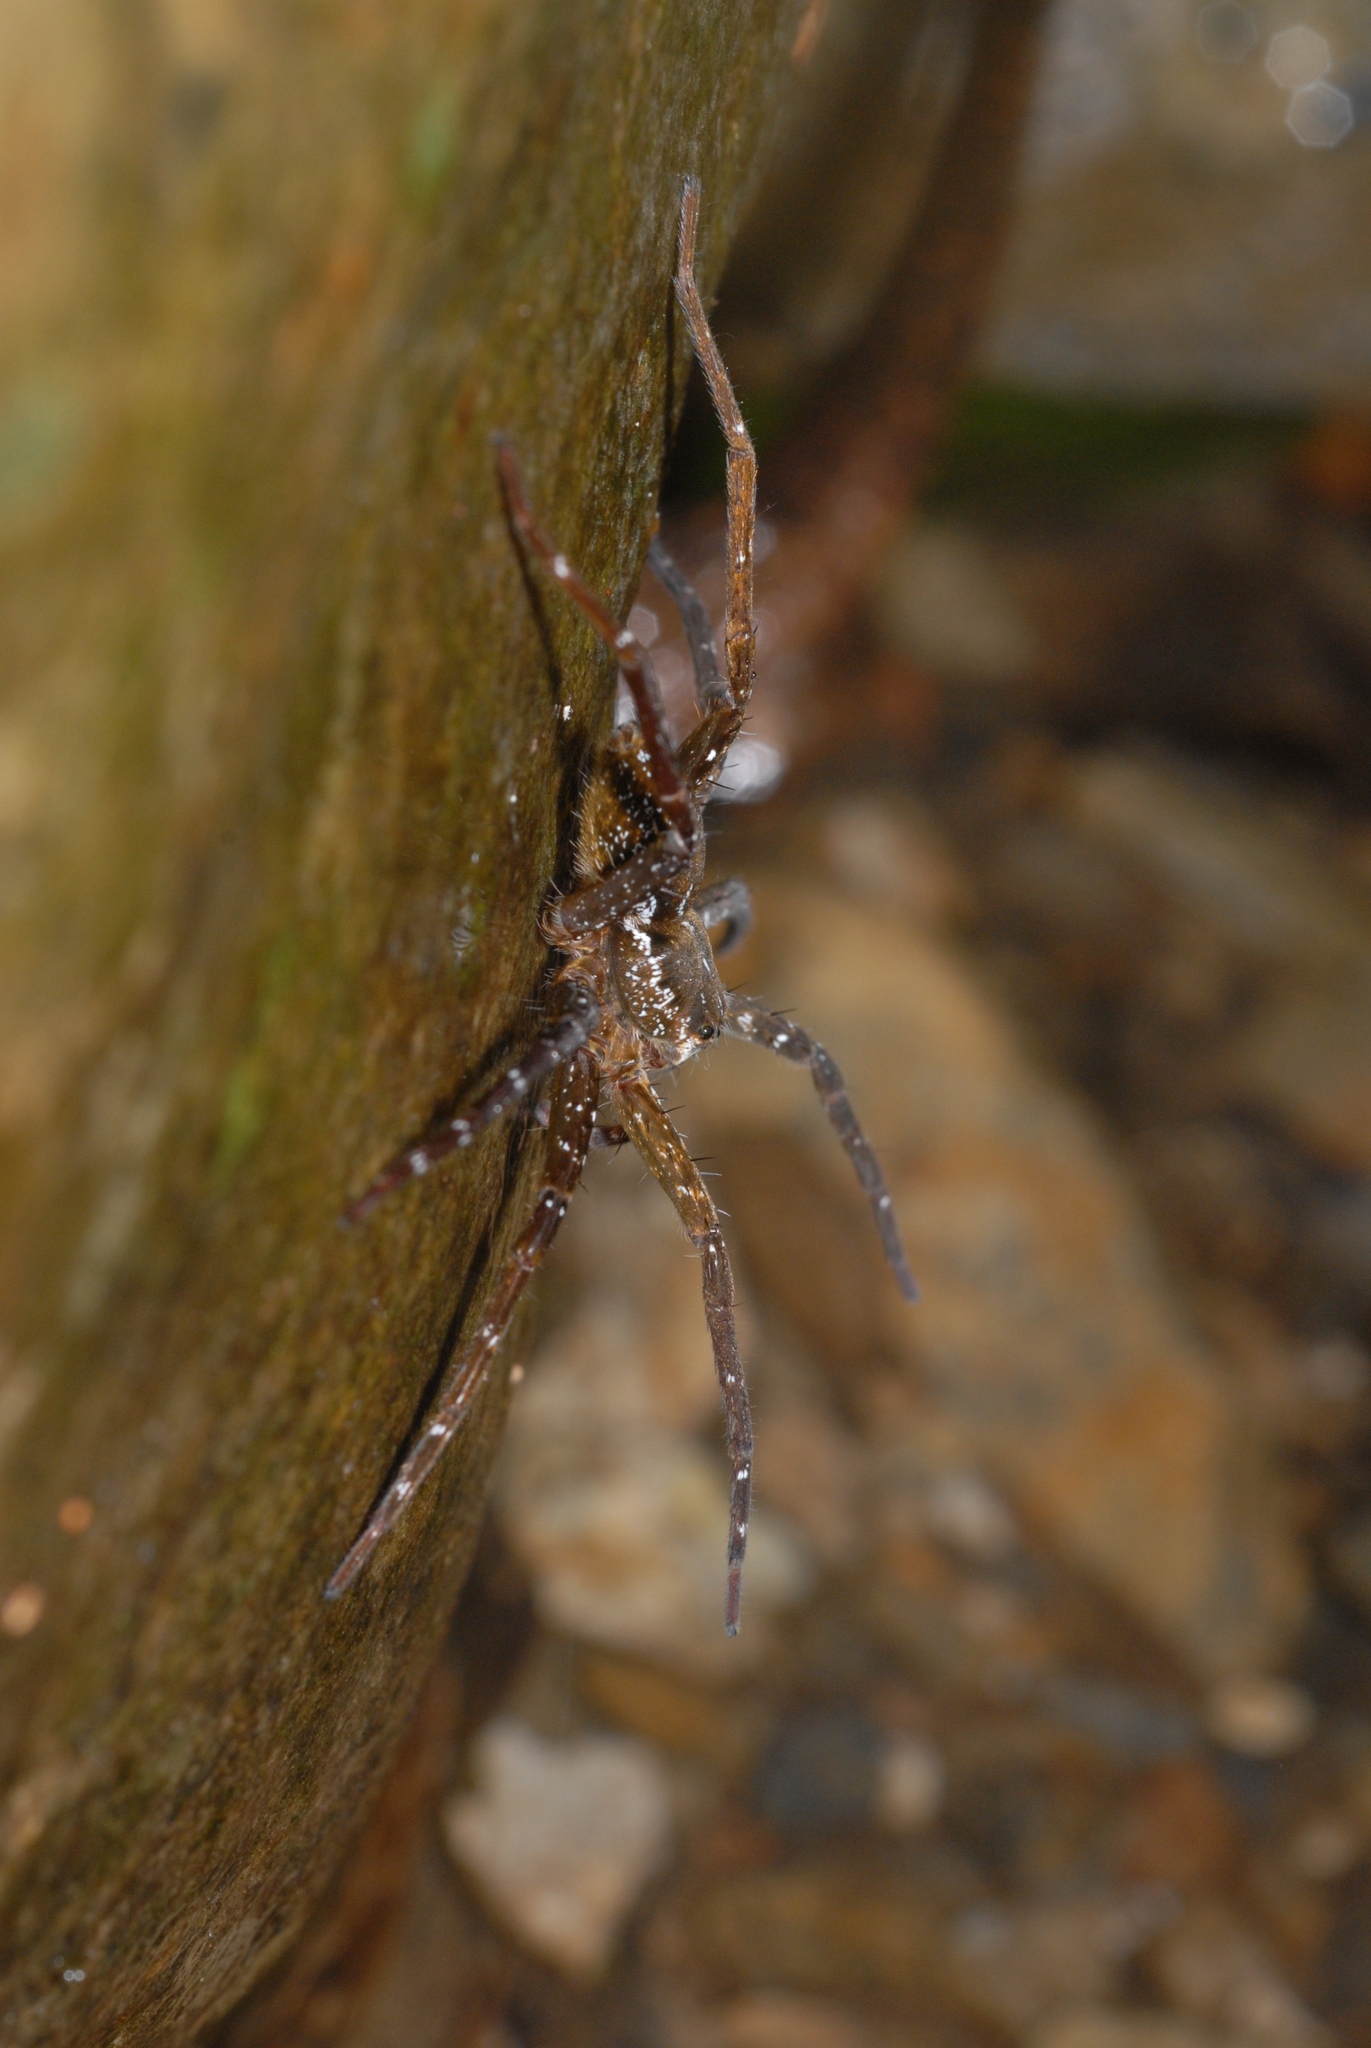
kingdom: Animalia
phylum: Arthropoda
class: Arachnida
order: Araneae
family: Pisauridae
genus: Dolomedes
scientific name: Dolomedes raptor
